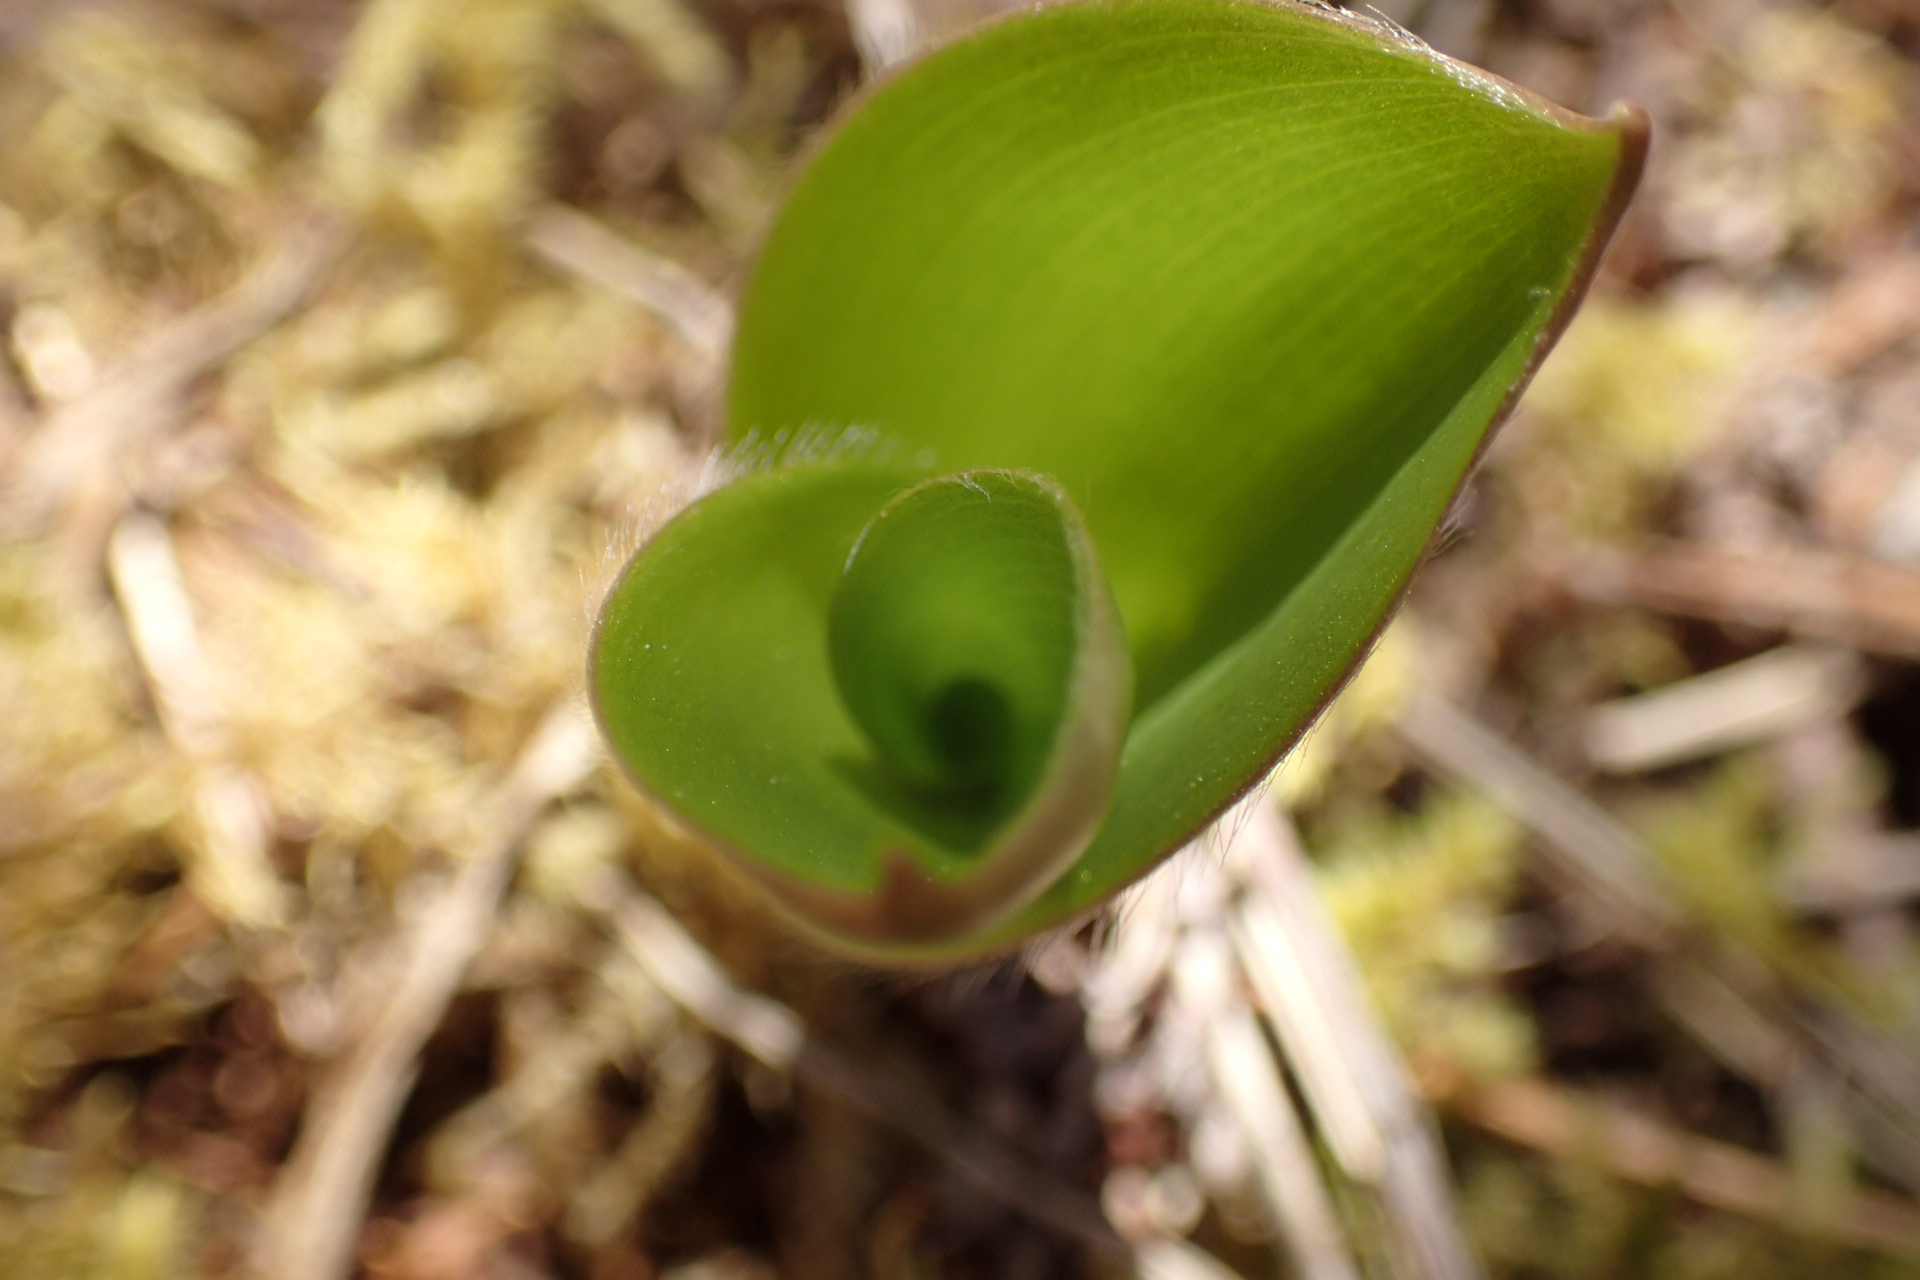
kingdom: Plantae
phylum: Tracheophyta
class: Liliopsida
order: Liliales
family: Liliaceae
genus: Clintonia
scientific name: Clintonia borealis
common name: Yellow clintonia
